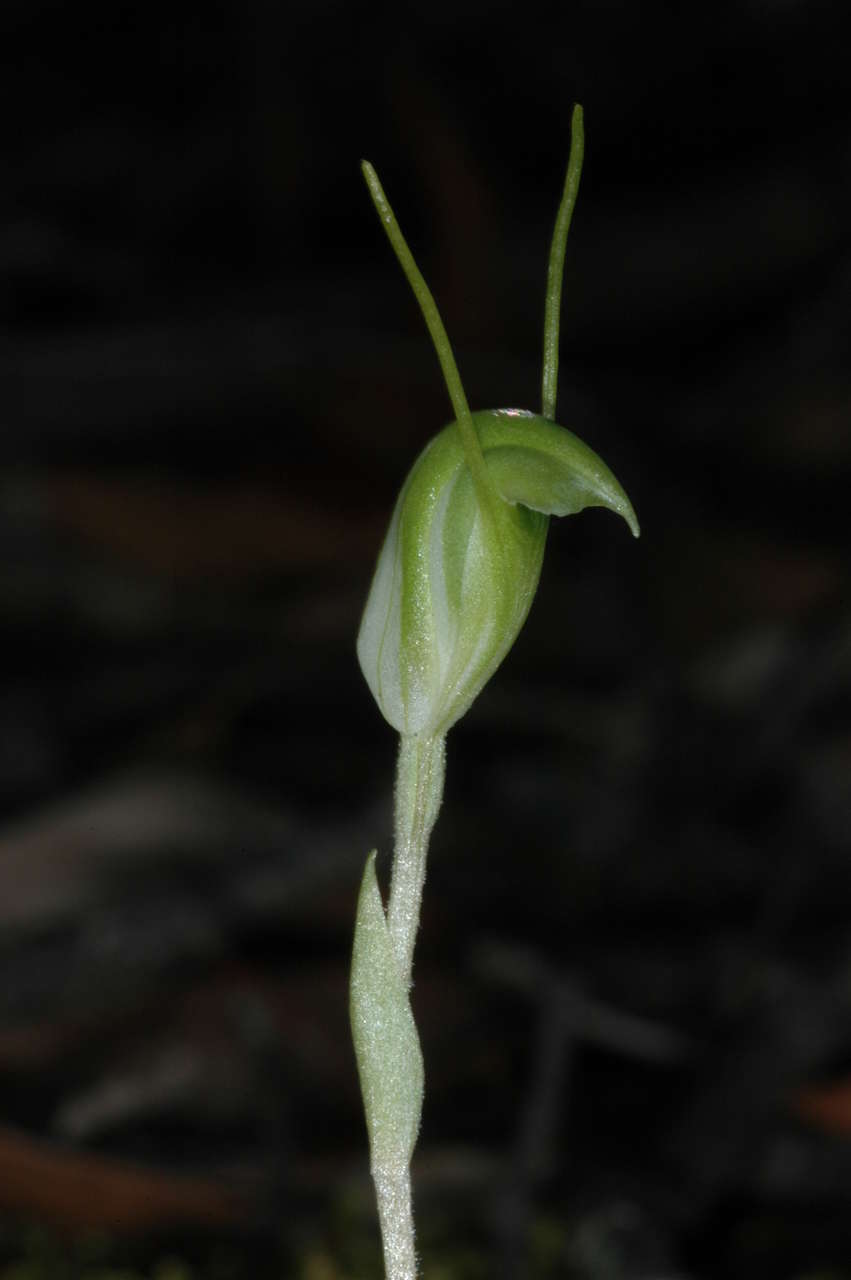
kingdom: Plantae
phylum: Tracheophyta
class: Liliopsida
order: Asparagales
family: Orchidaceae
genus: Pterostylis
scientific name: Pterostylis nana
